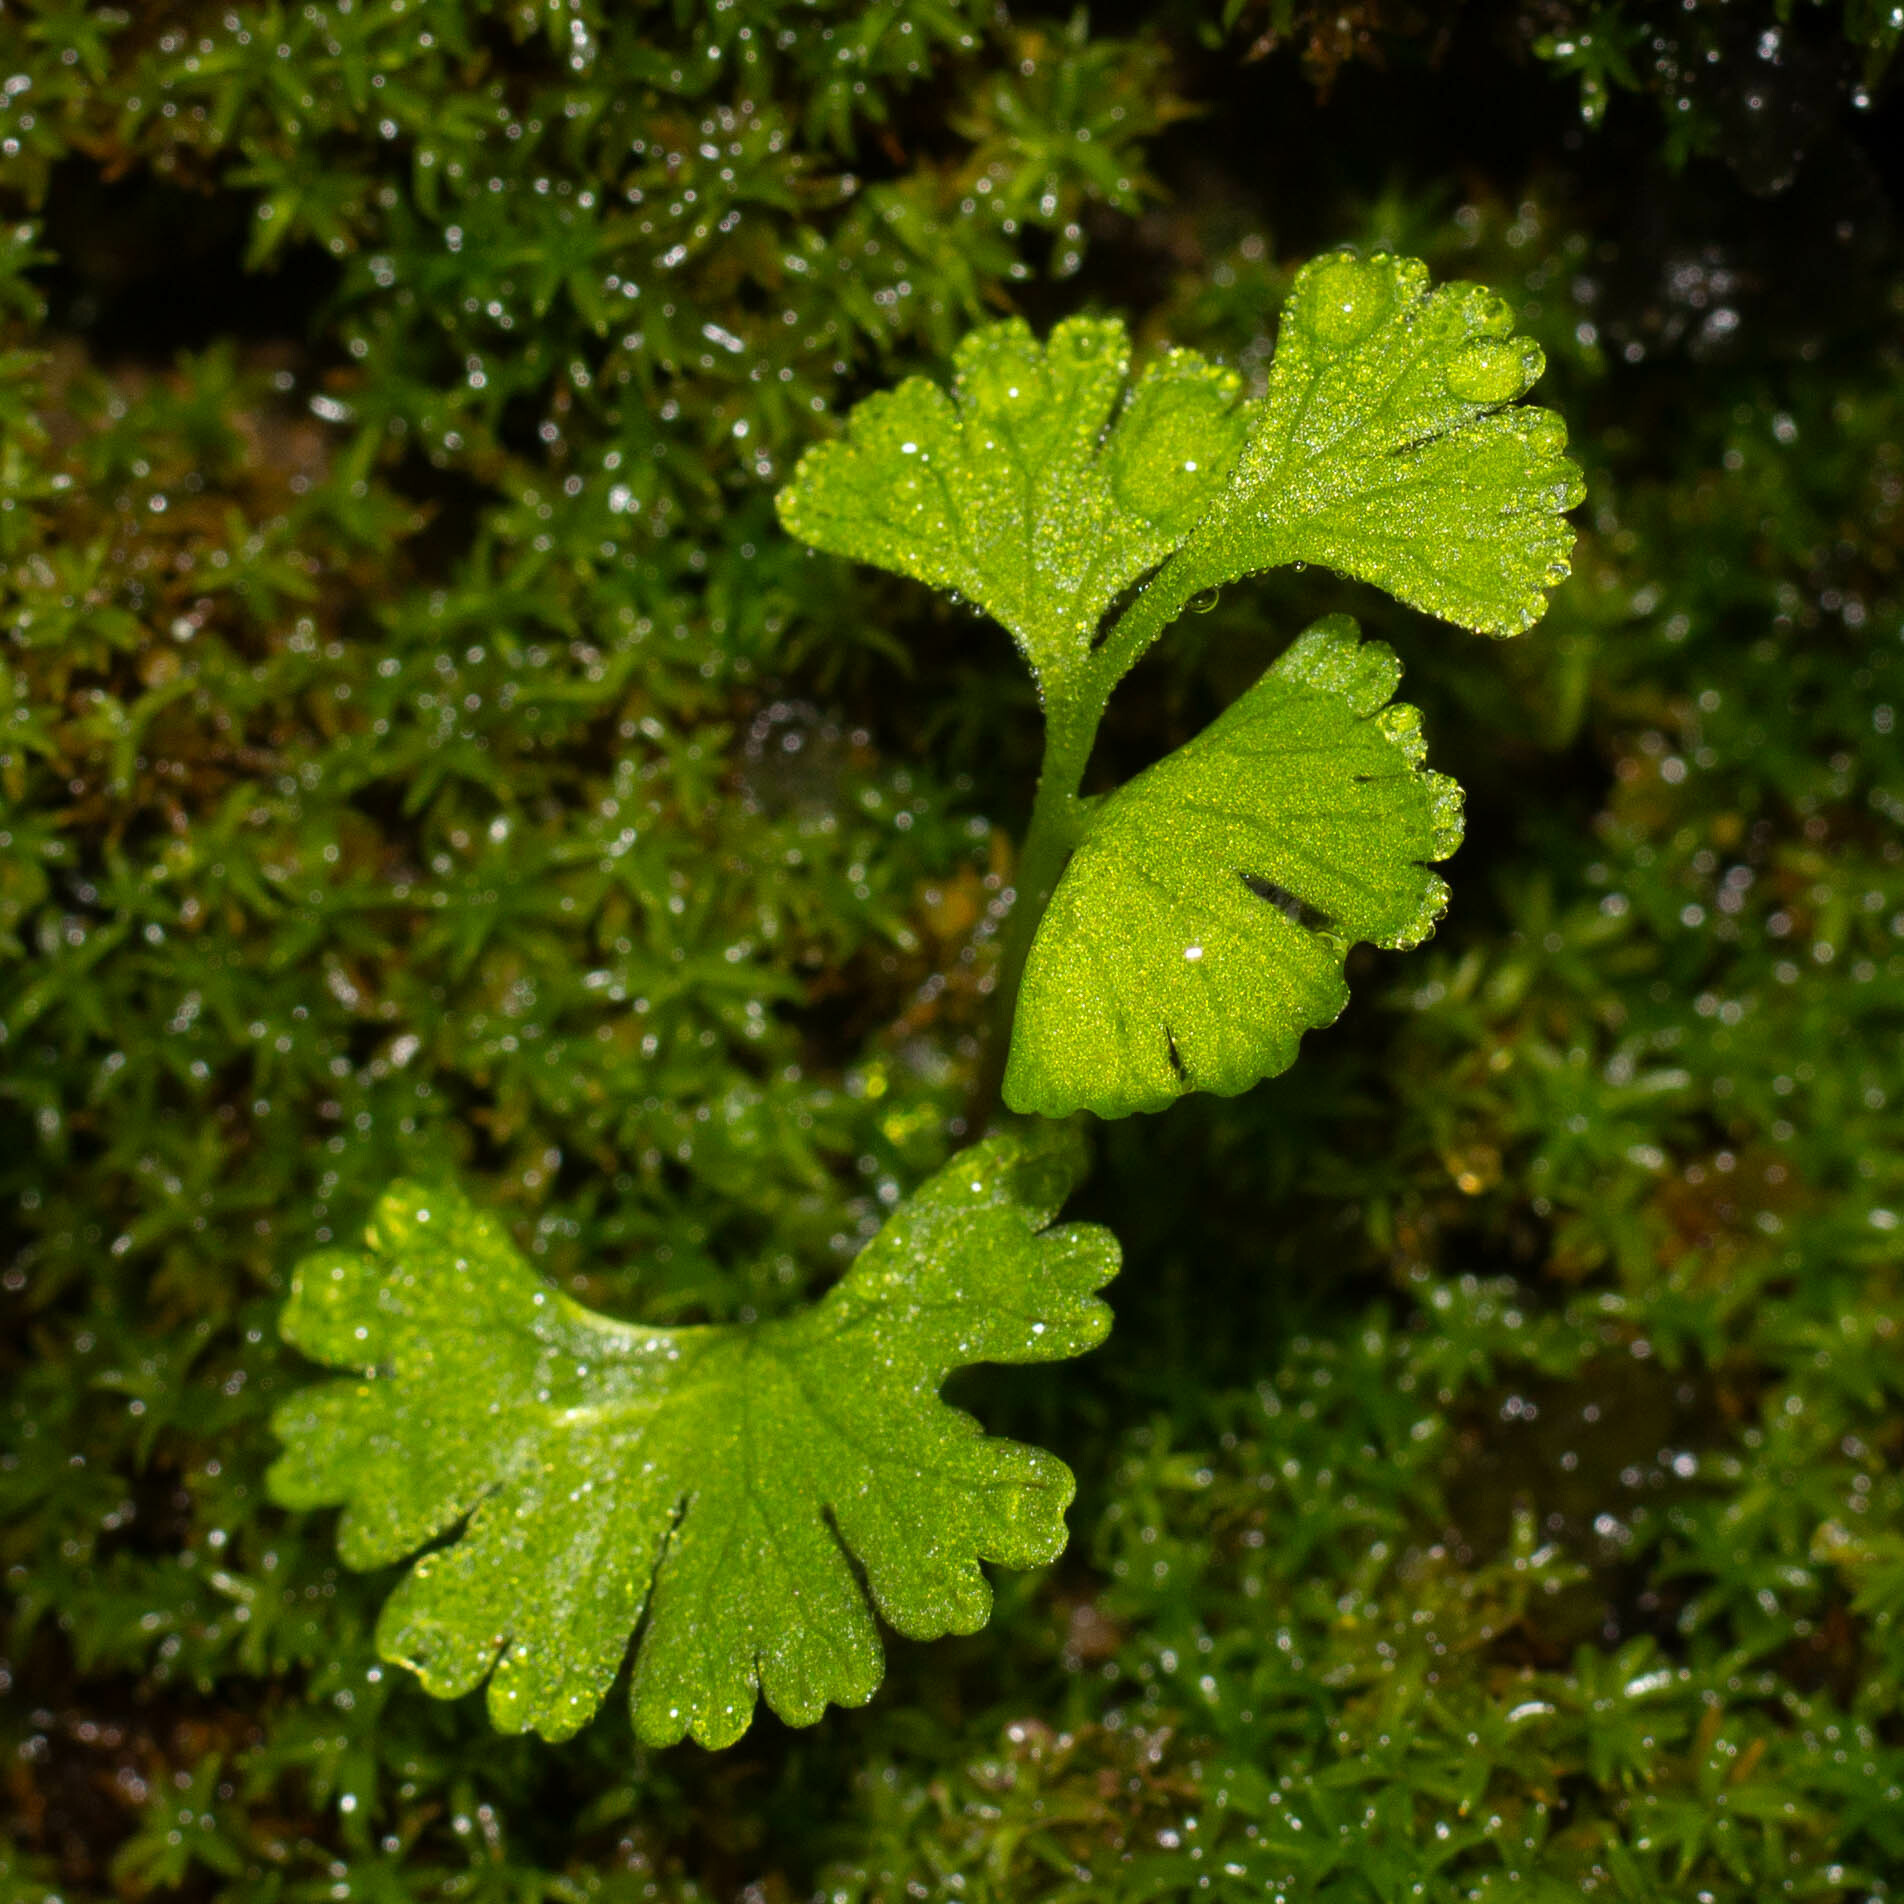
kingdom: Plantae
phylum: Tracheophyta
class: Polypodiopsida
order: Polypodiales
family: Pteridaceae
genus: Anogramma
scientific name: Anogramma leptophylla
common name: Jersey fern
